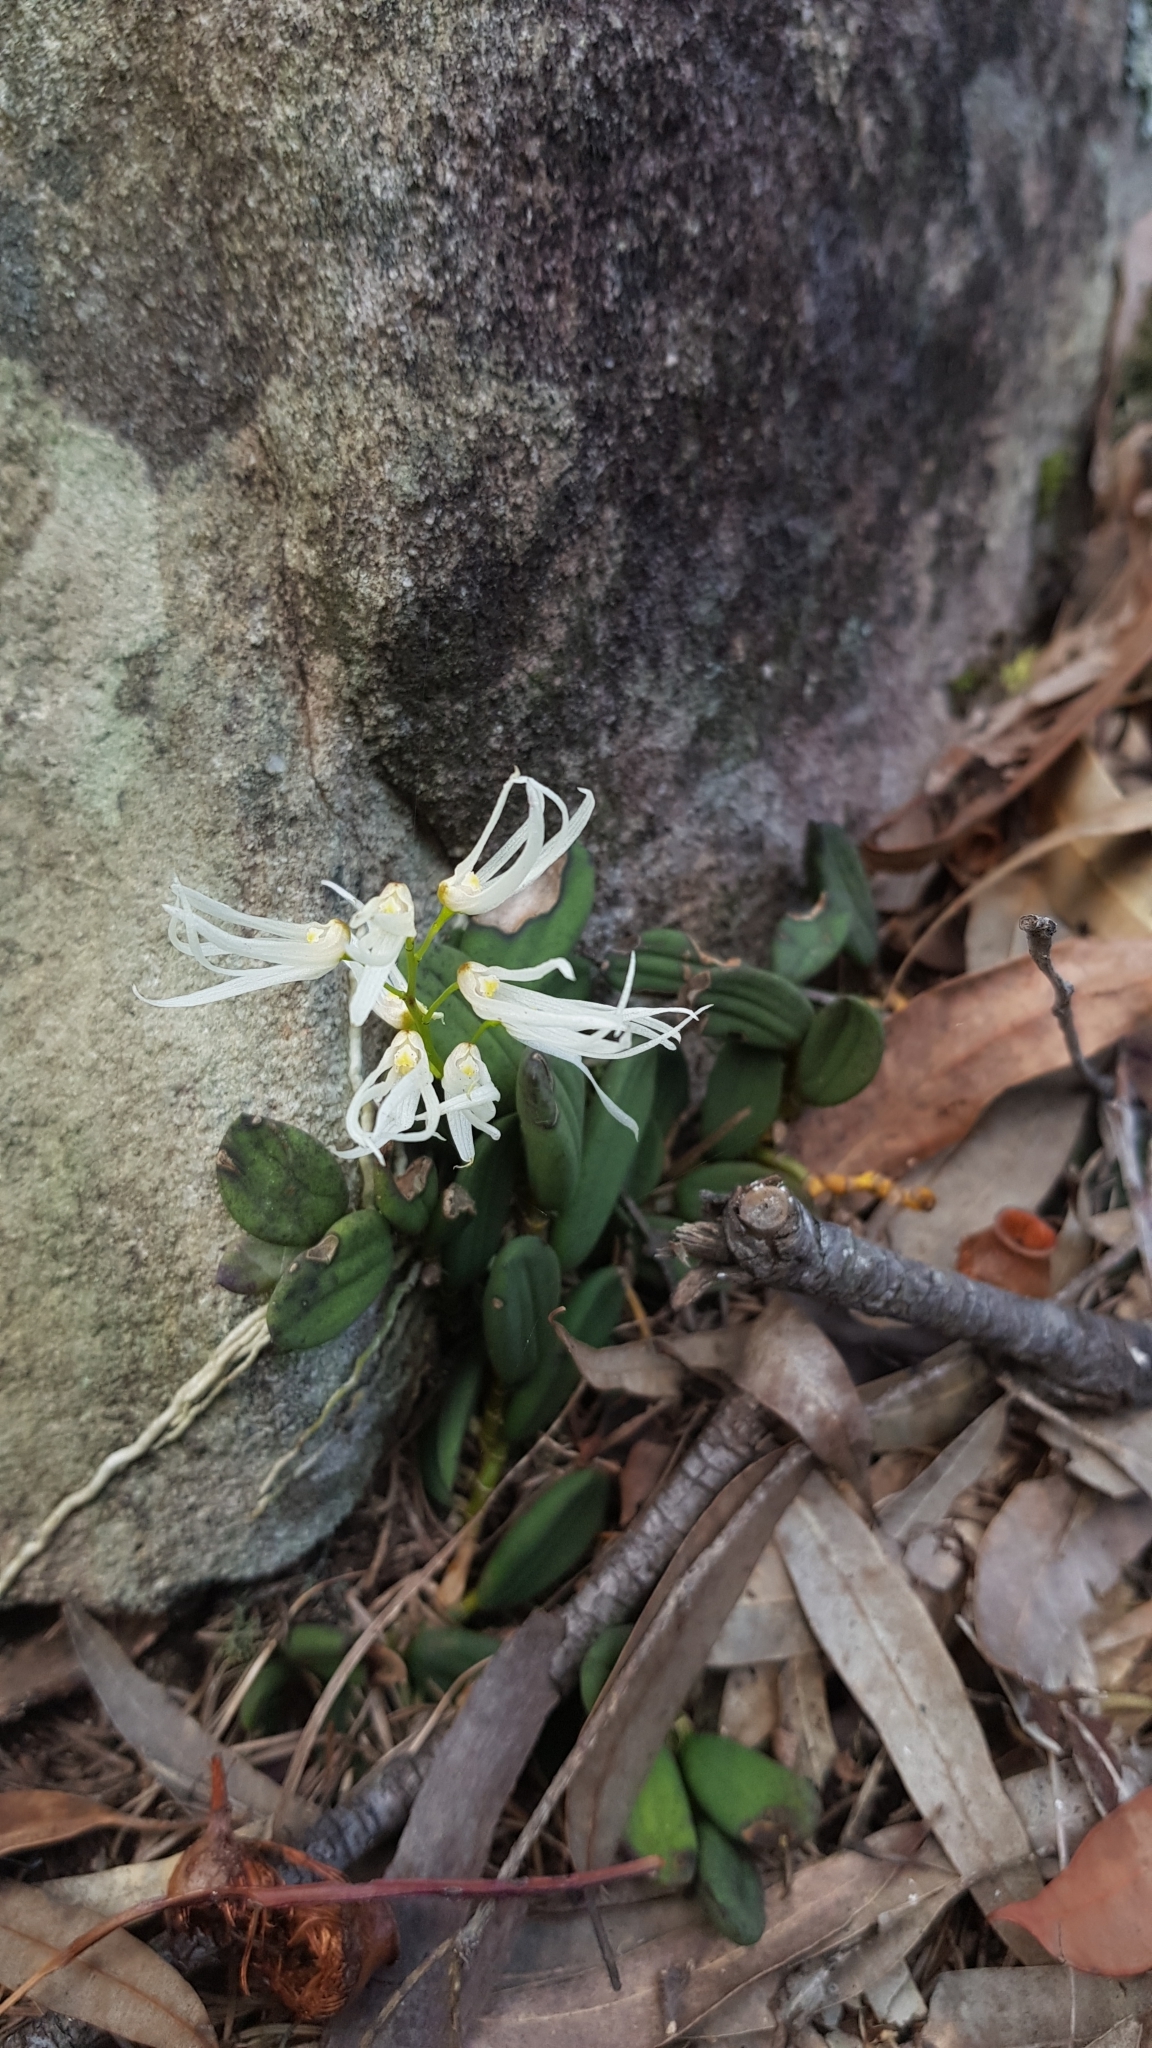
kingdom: Plantae
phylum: Tracheophyta
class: Liliopsida
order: Asparagales
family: Orchidaceae
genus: Dendrobium
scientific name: Dendrobium linguiforme
